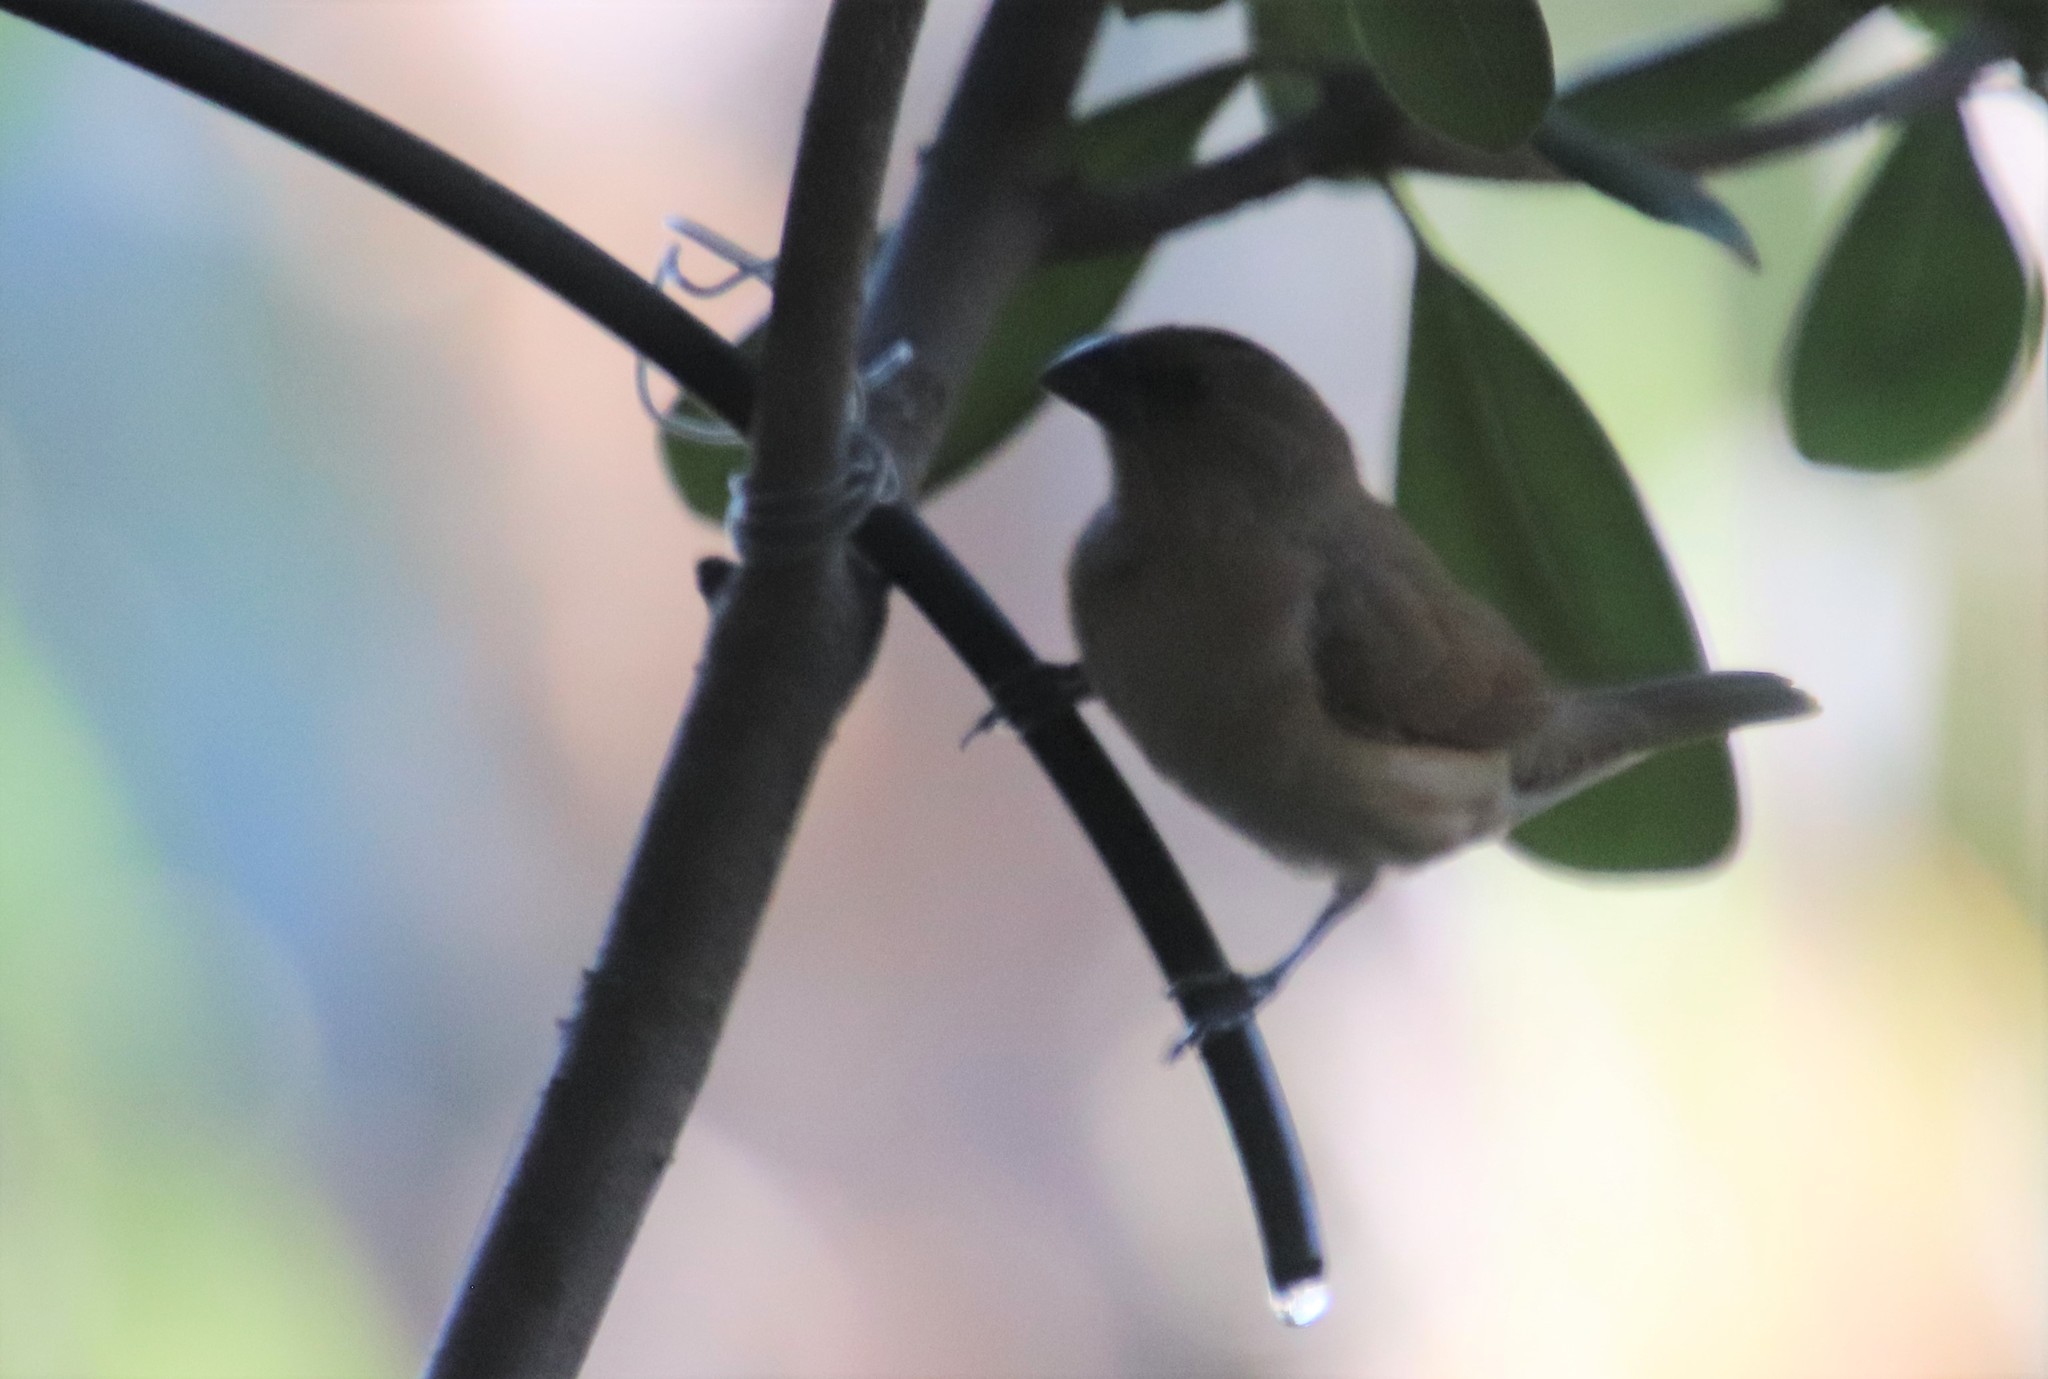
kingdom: Animalia
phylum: Chordata
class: Aves
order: Passeriformes
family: Estrildidae
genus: Lonchura
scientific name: Lonchura punctulata
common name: Scaly-breasted munia
